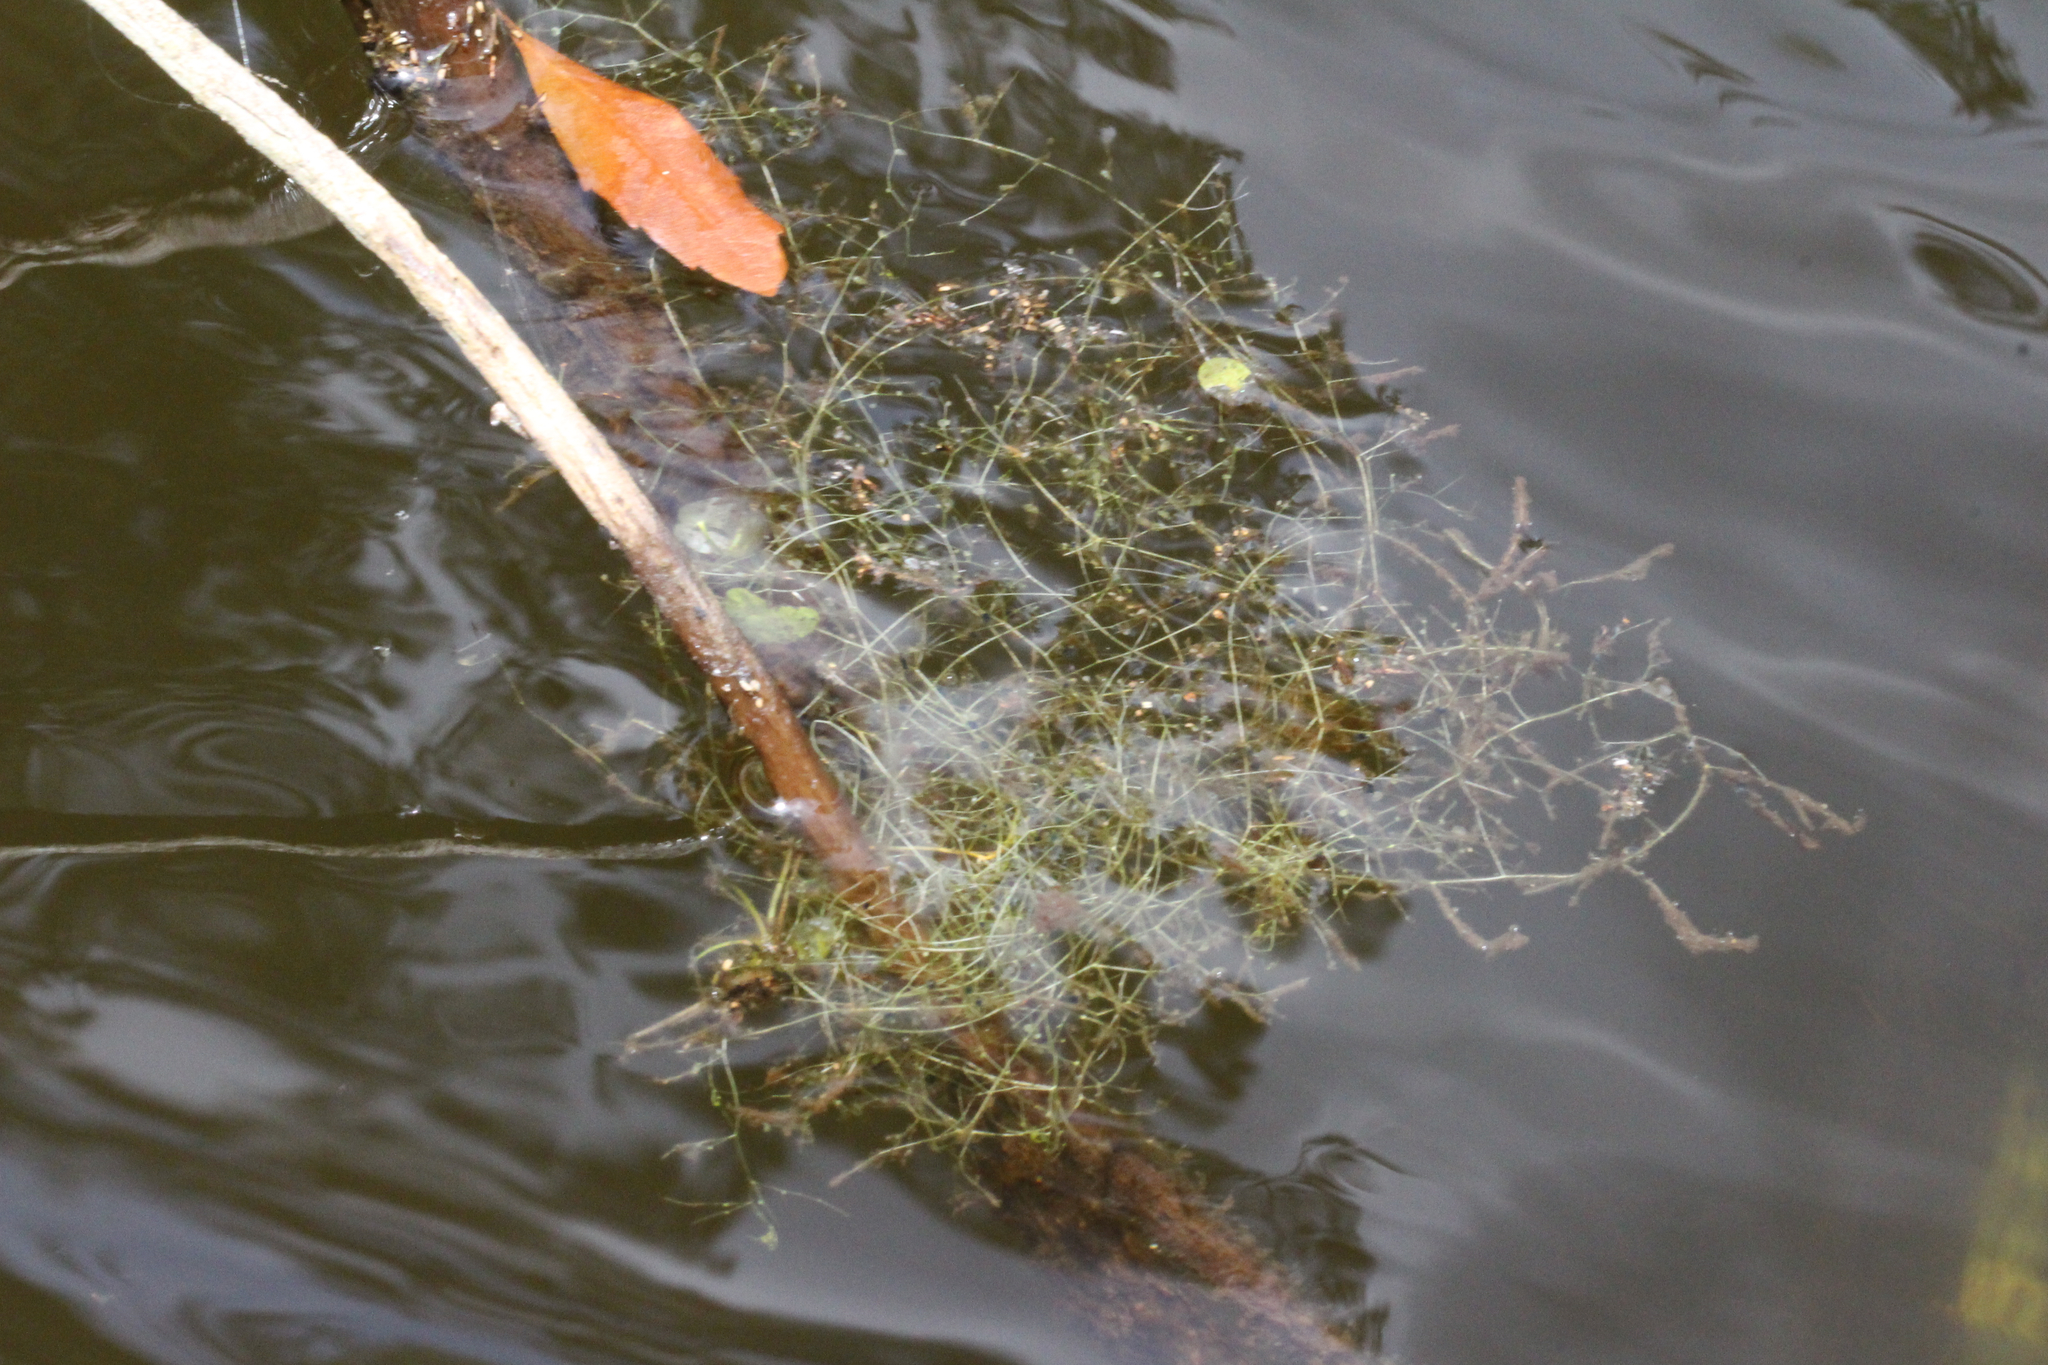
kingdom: Plantae
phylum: Tracheophyta
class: Magnoliopsida
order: Lamiales
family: Lentibulariaceae
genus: Utricularia
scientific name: Utricularia gibba
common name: Humped bladderwort
